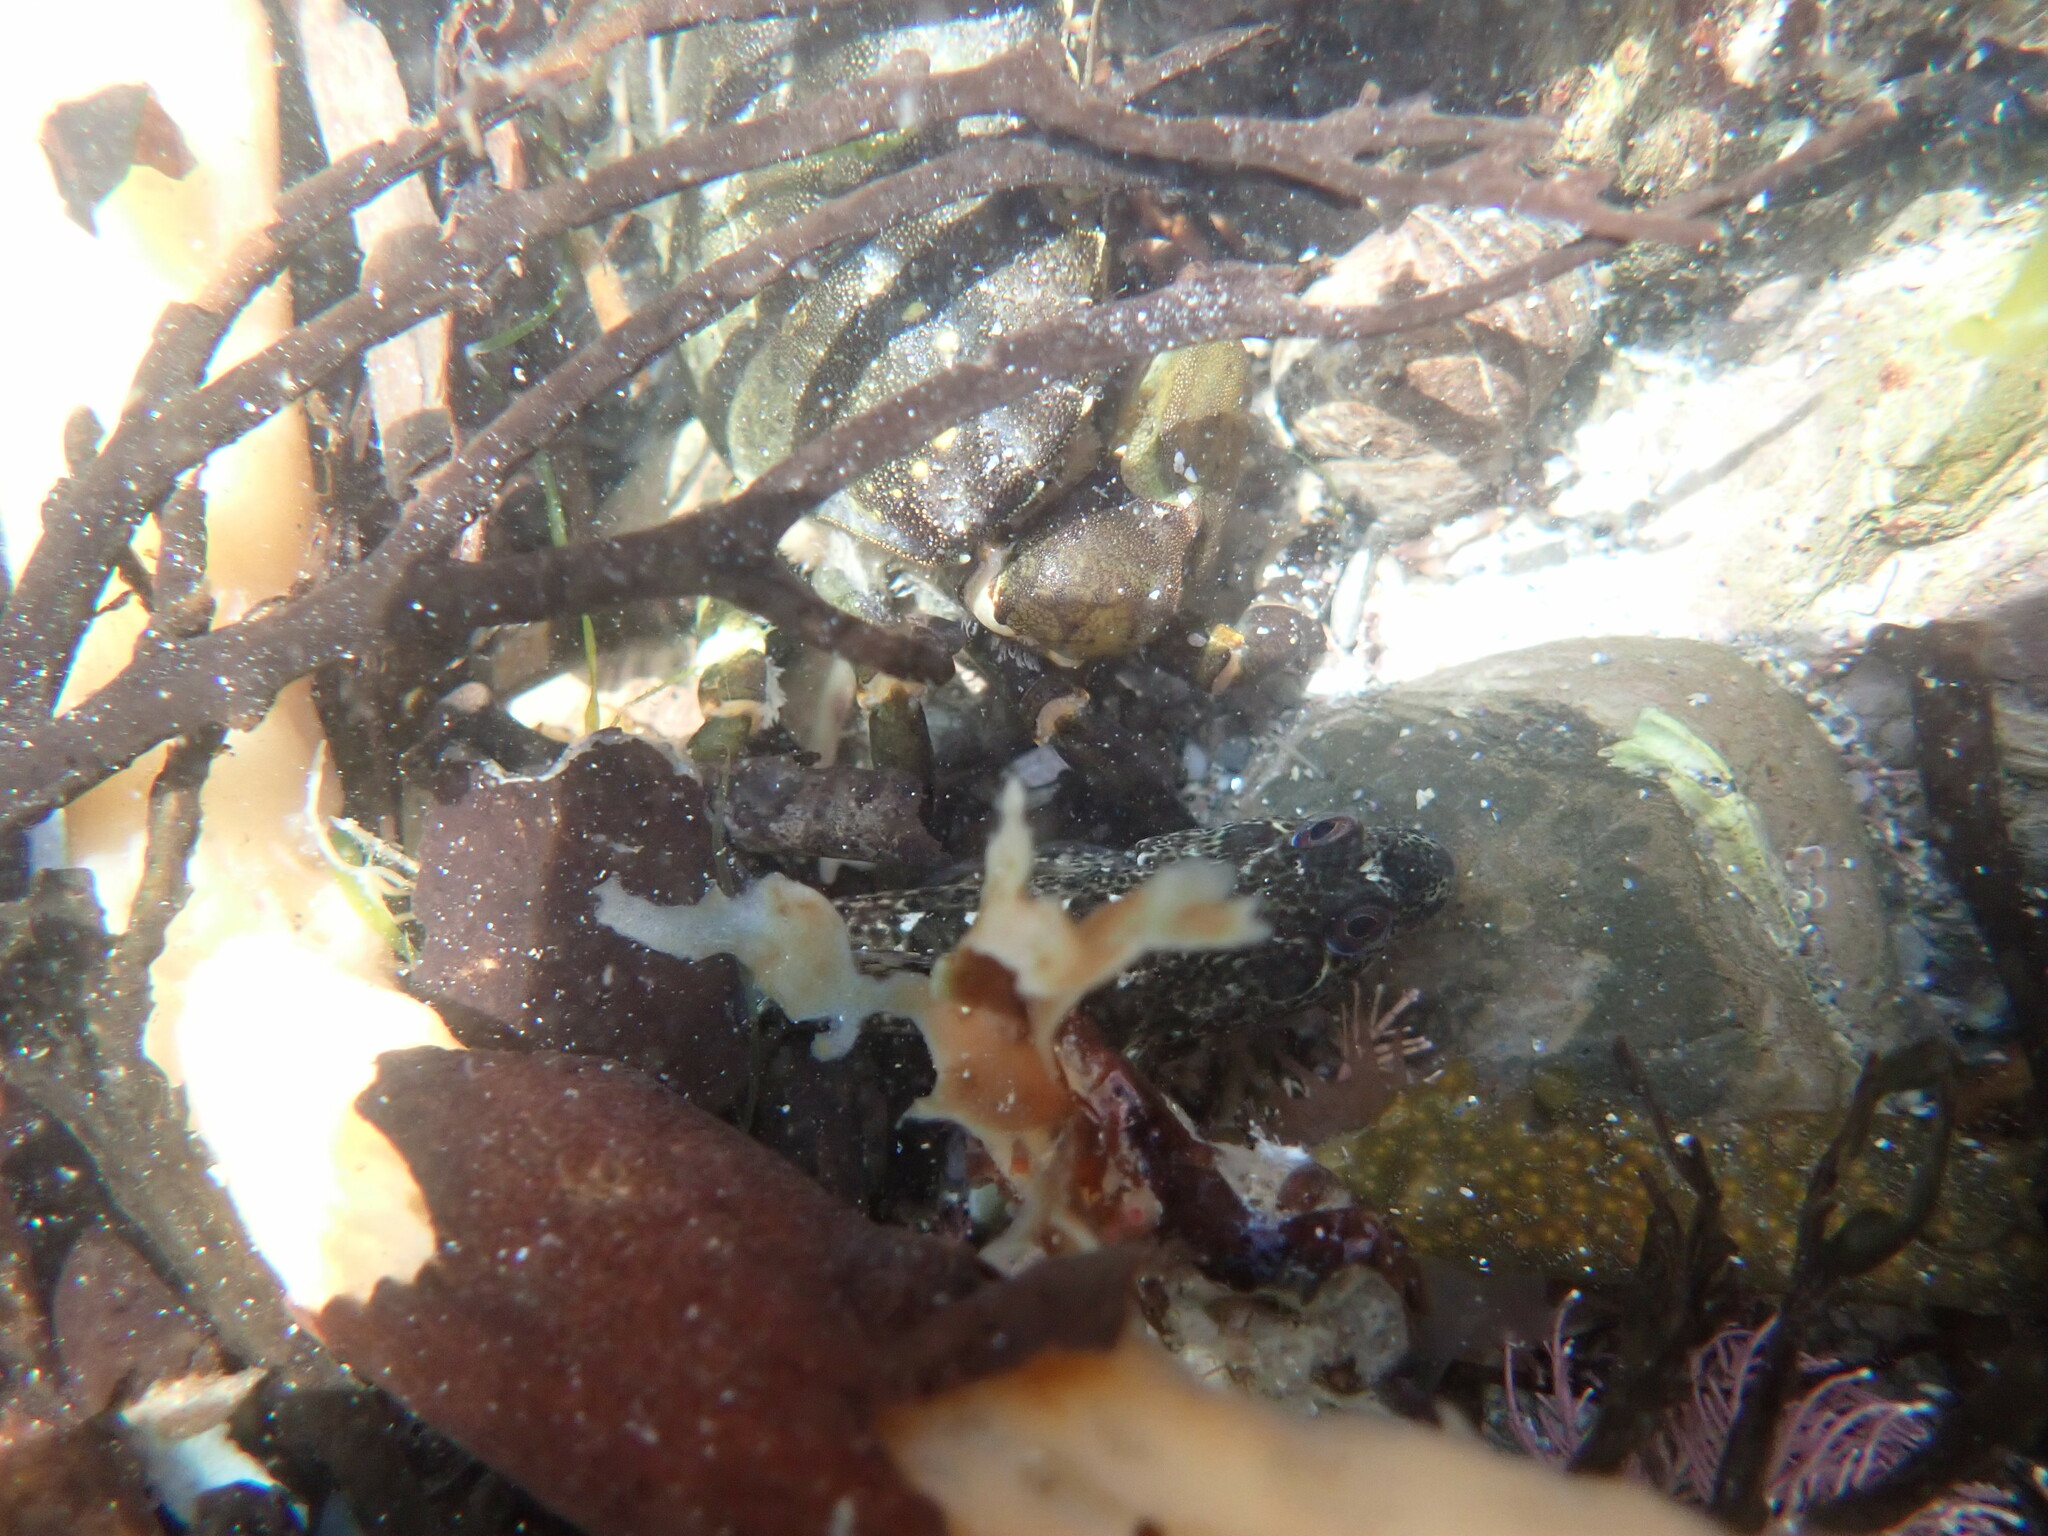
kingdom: Animalia
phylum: Chordata
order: Perciformes
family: Blenniidae
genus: Lipophrys
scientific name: Lipophrys pholis
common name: Shanny
